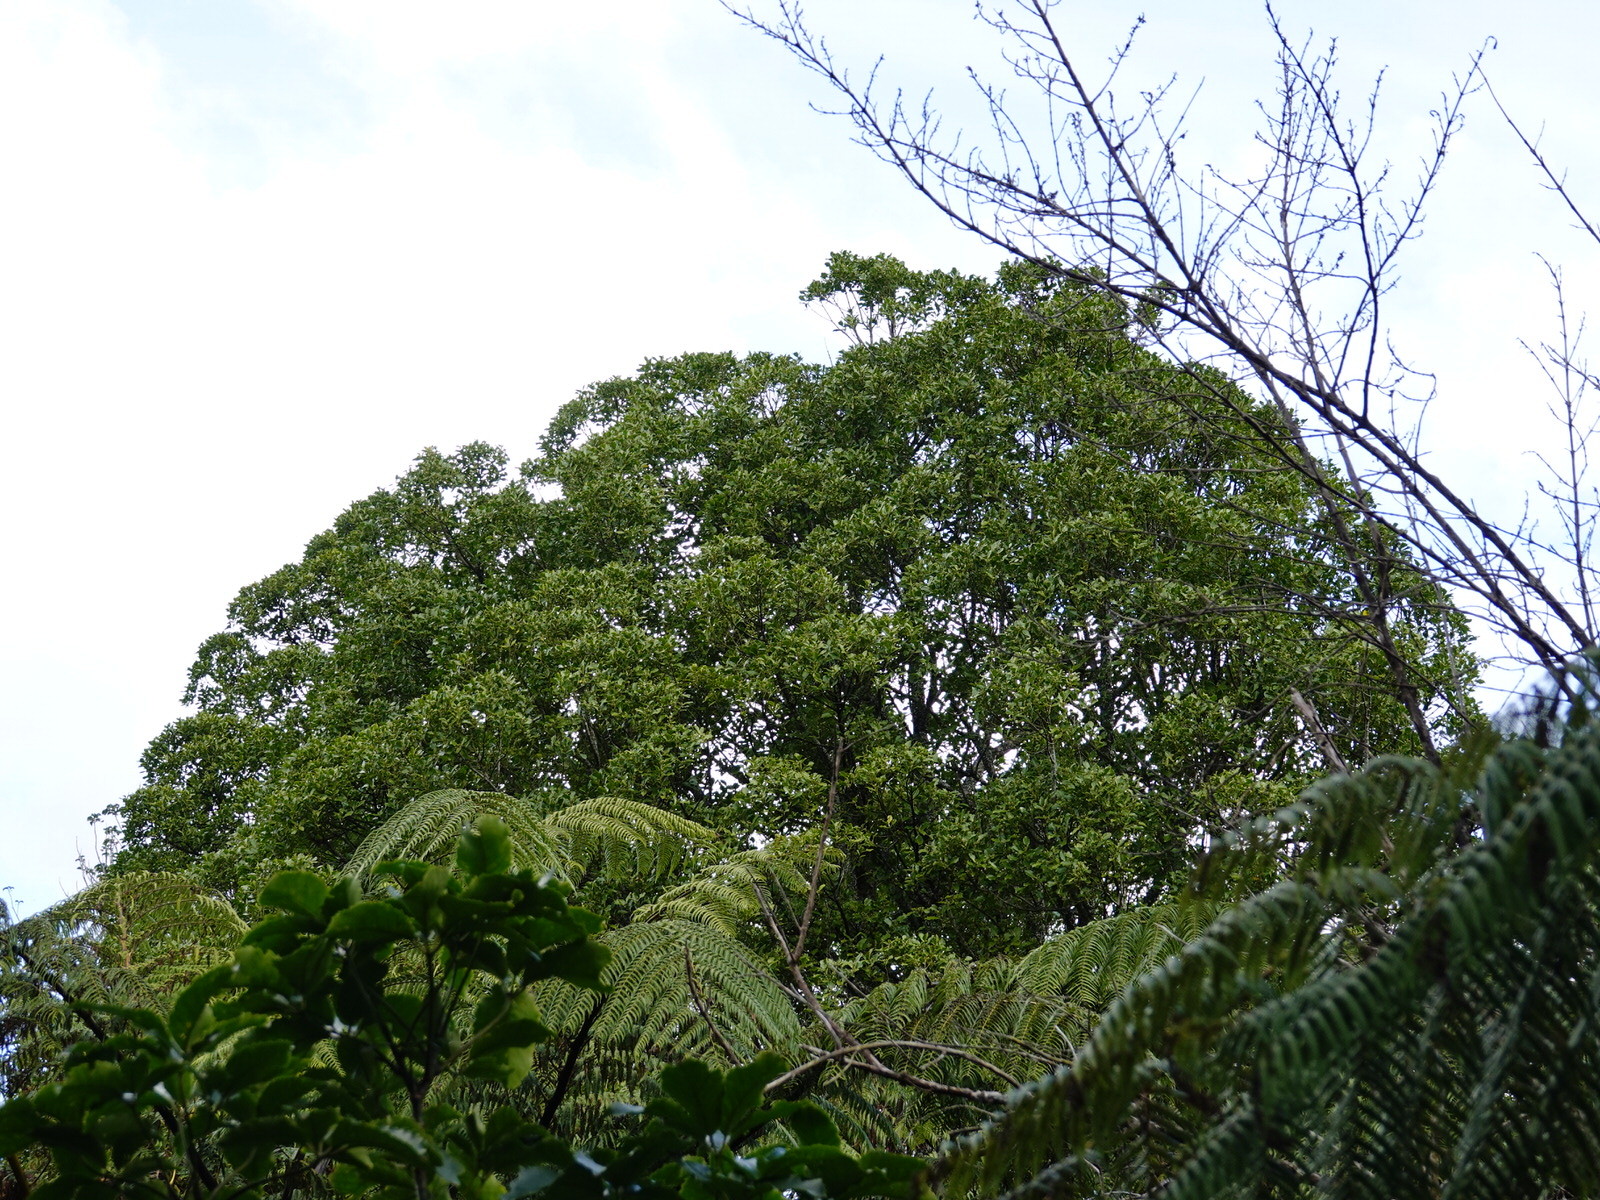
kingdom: Plantae
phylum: Tracheophyta
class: Magnoliopsida
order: Laurales
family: Atherospermataceae
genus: Laurelia
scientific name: Laurelia novae-zelandiae
